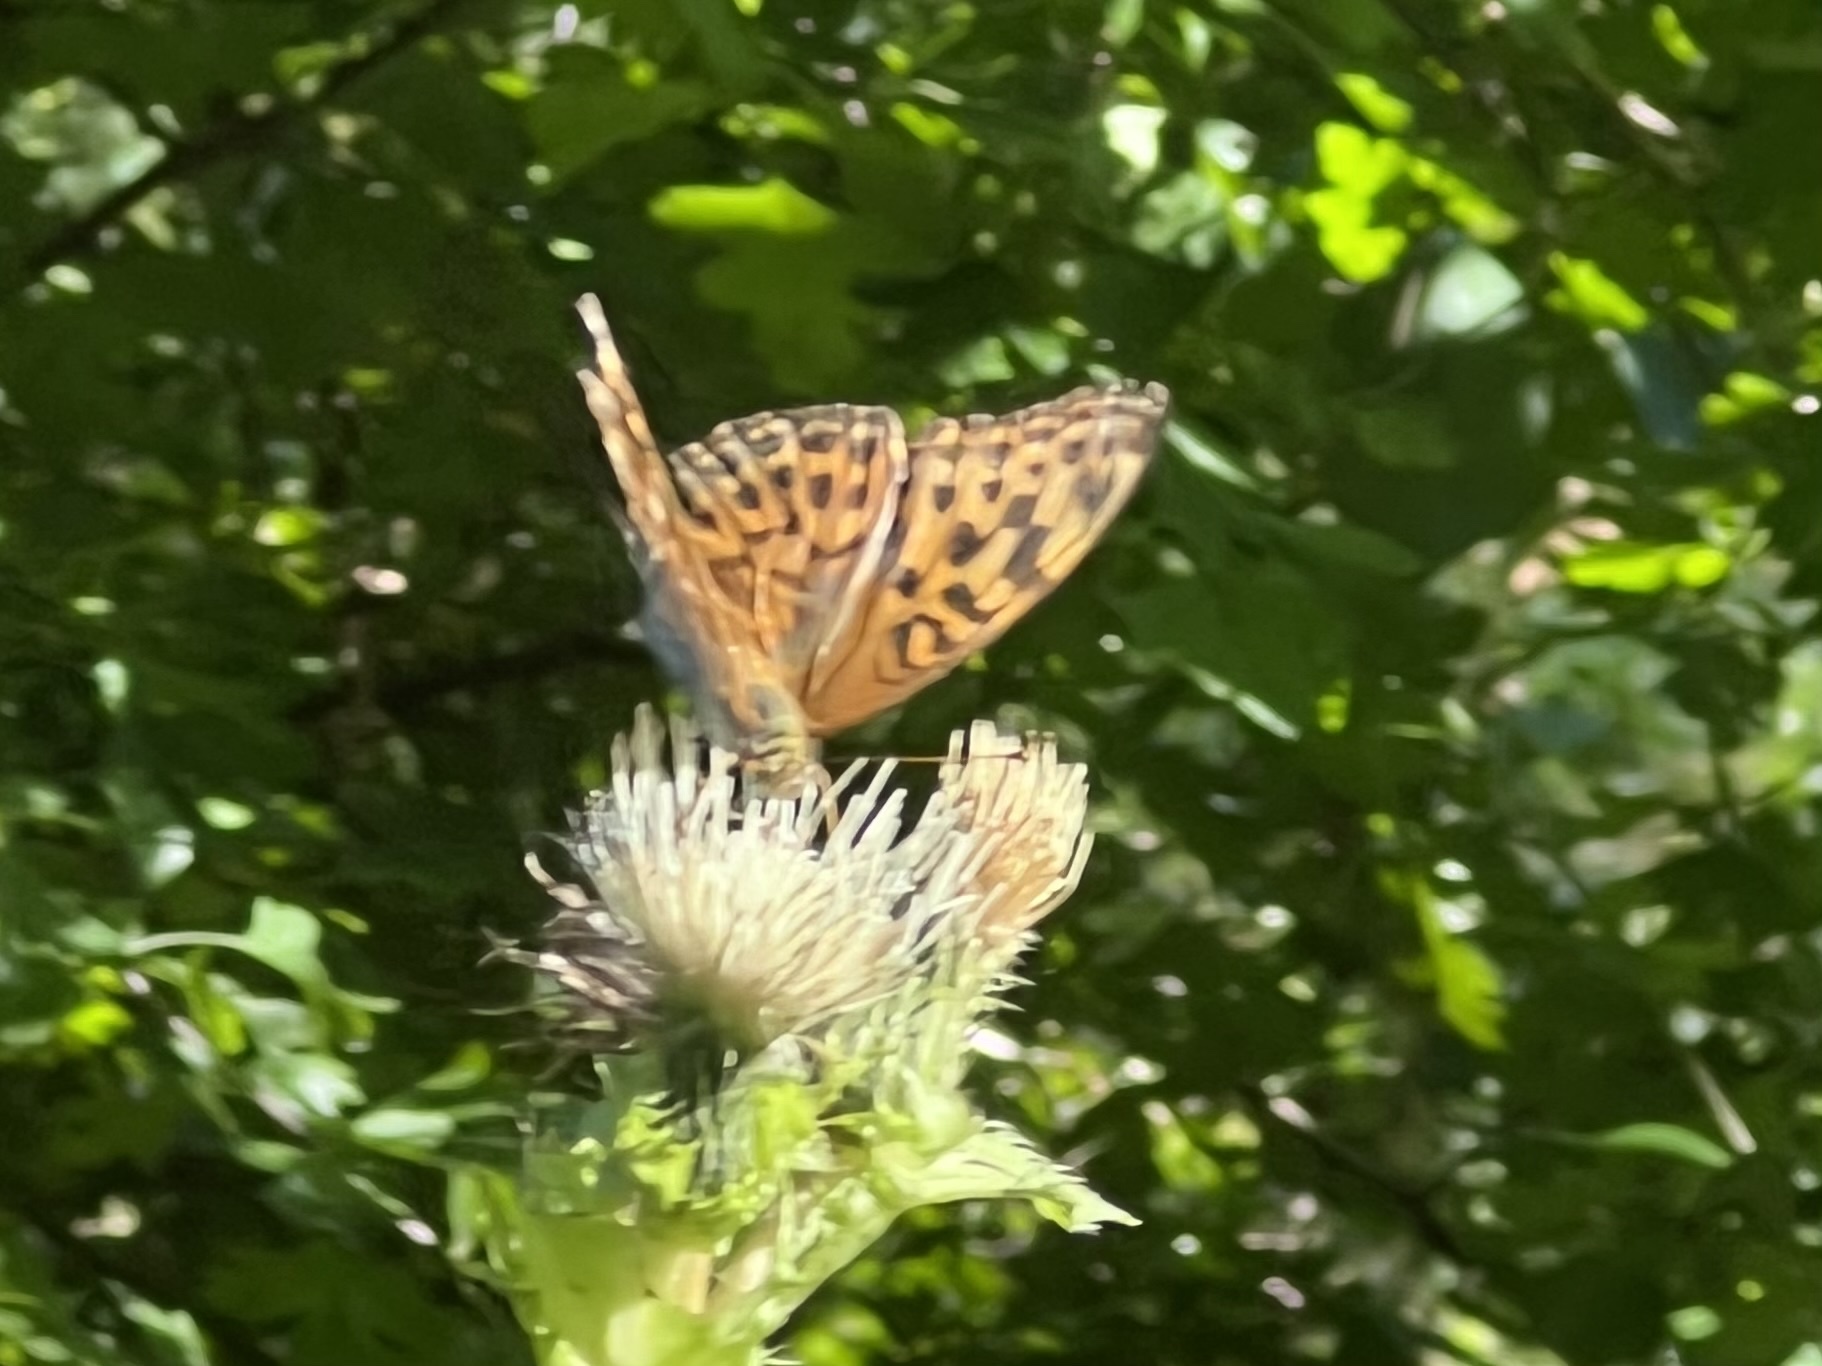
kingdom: Animalia
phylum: Arthropoda
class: Insecta
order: Lepidoptera
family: Nymphalidae
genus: Argynnis
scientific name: Argynnis paphia
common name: Silver-washed fritillary
